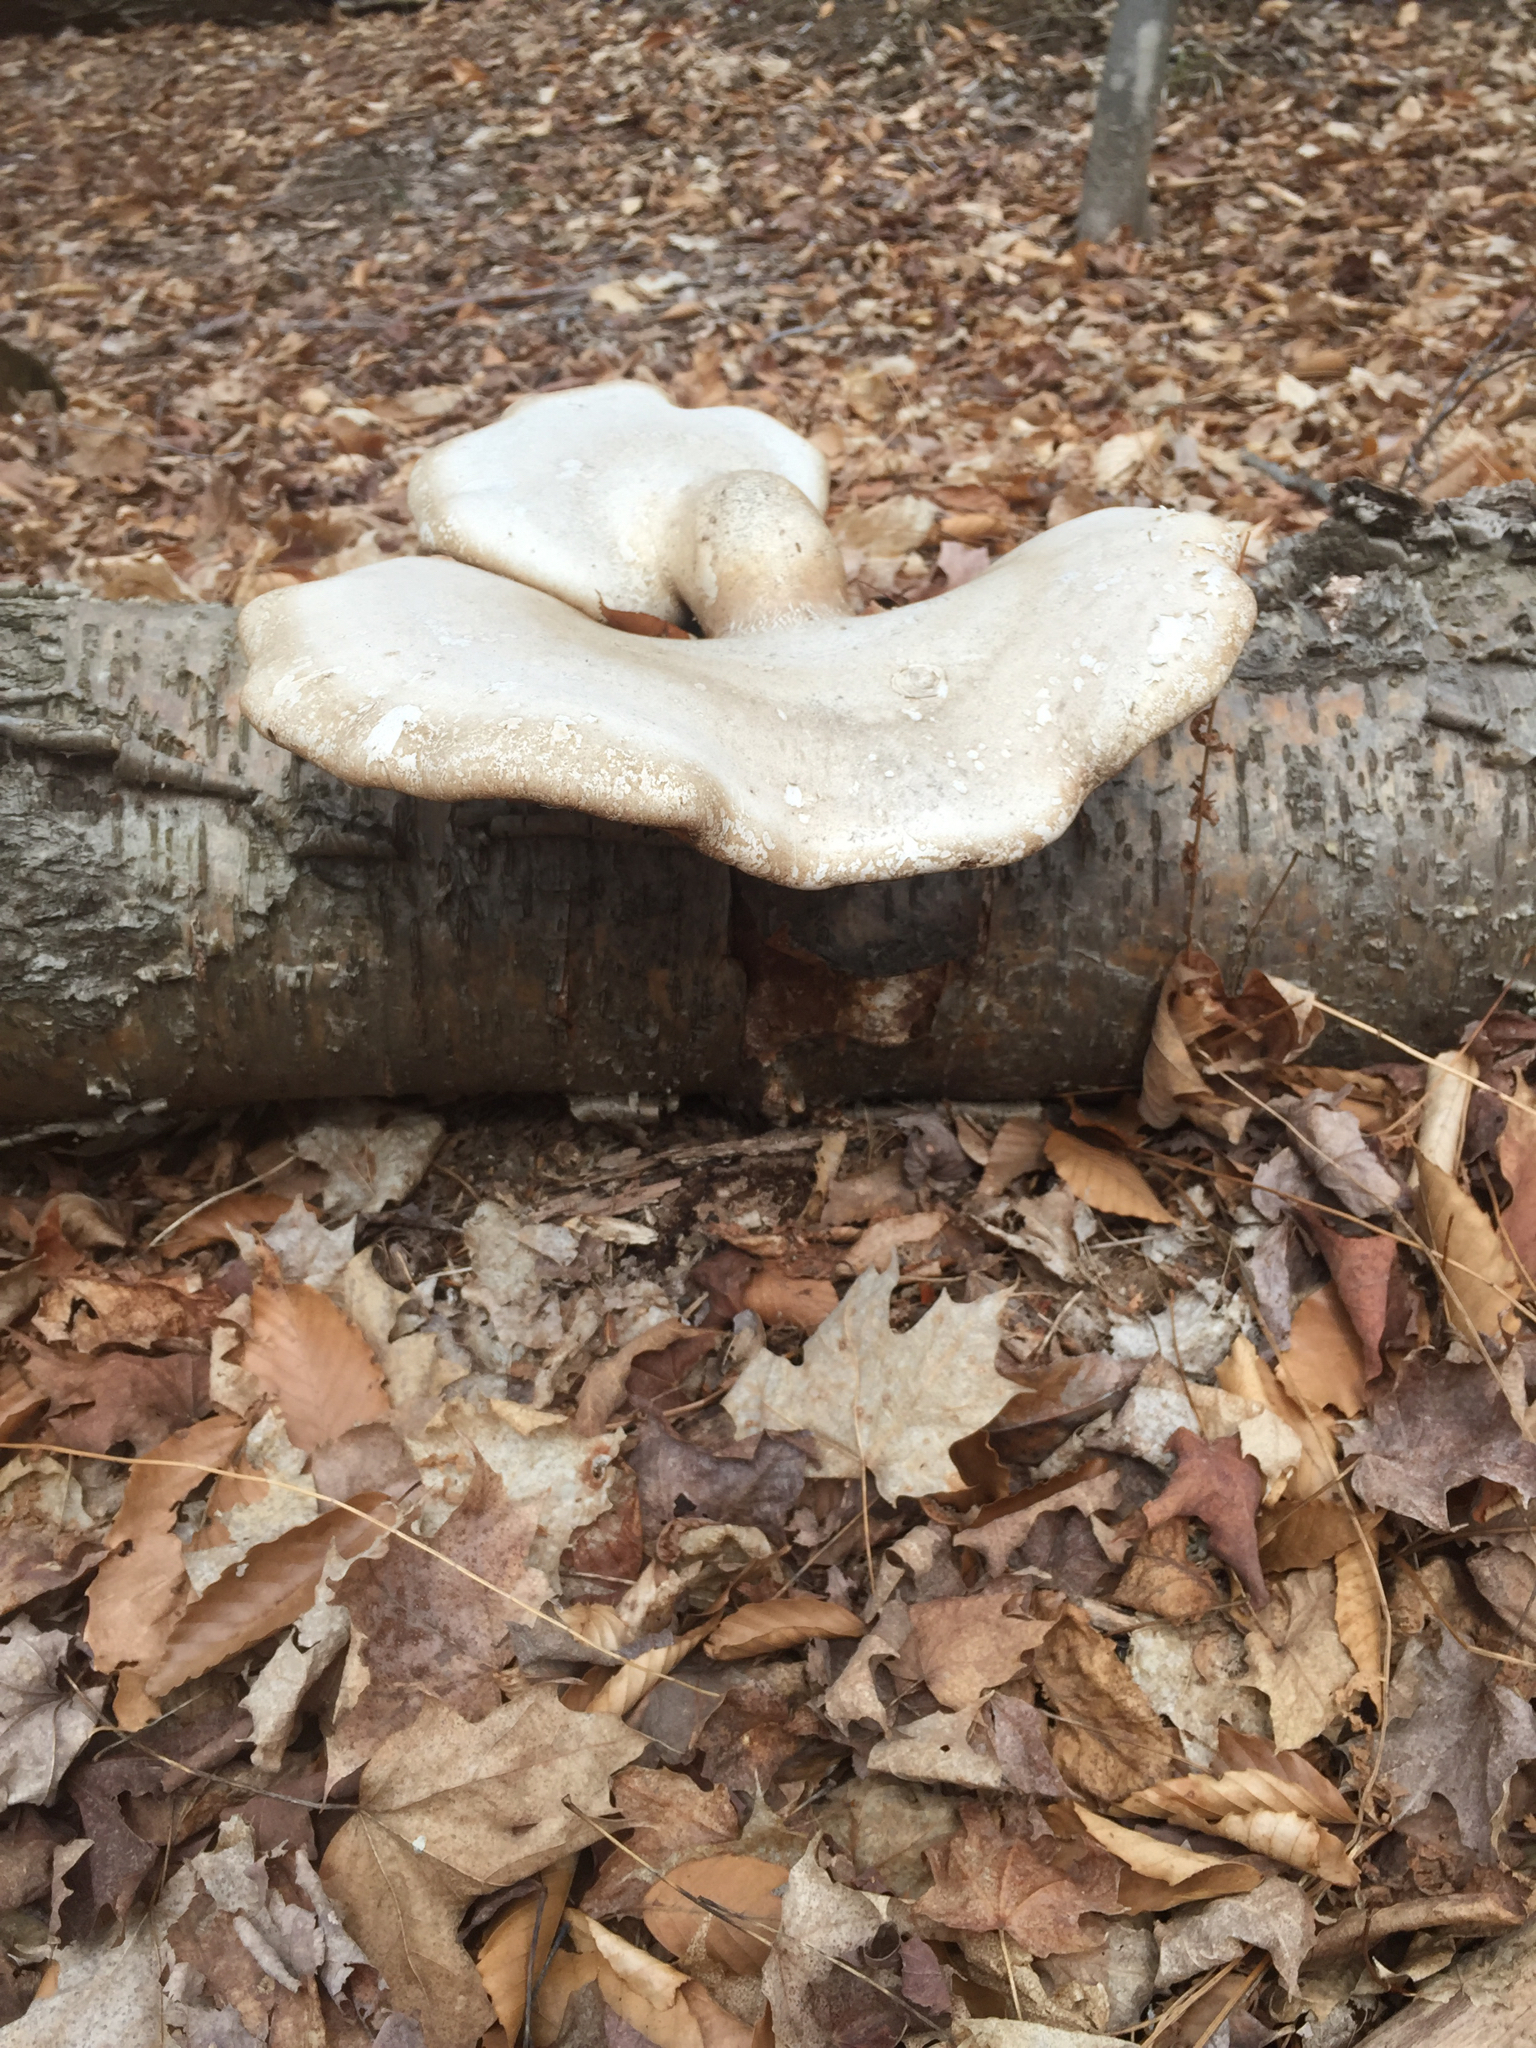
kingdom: Fungi
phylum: Basidiomycota
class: Agaricomycetes
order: Polyporales
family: Fomitopsidaceae
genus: Fomitopsis
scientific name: Fomitopsis betulina
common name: Birch polypore
